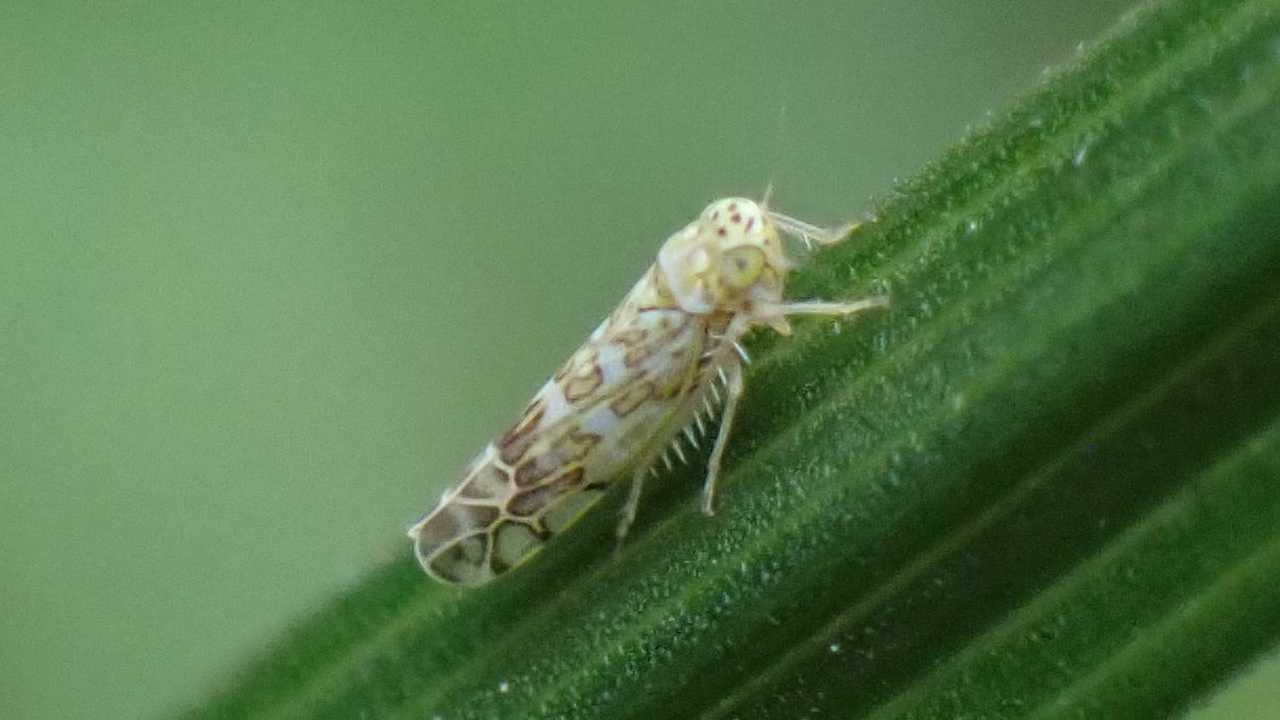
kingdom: Animalia
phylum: Arthropoda
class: Insecta
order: Hemiptera
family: Cicadellidae
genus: Eupteryx
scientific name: Eupteryx decemnotata
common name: Ligurian leafhopper
